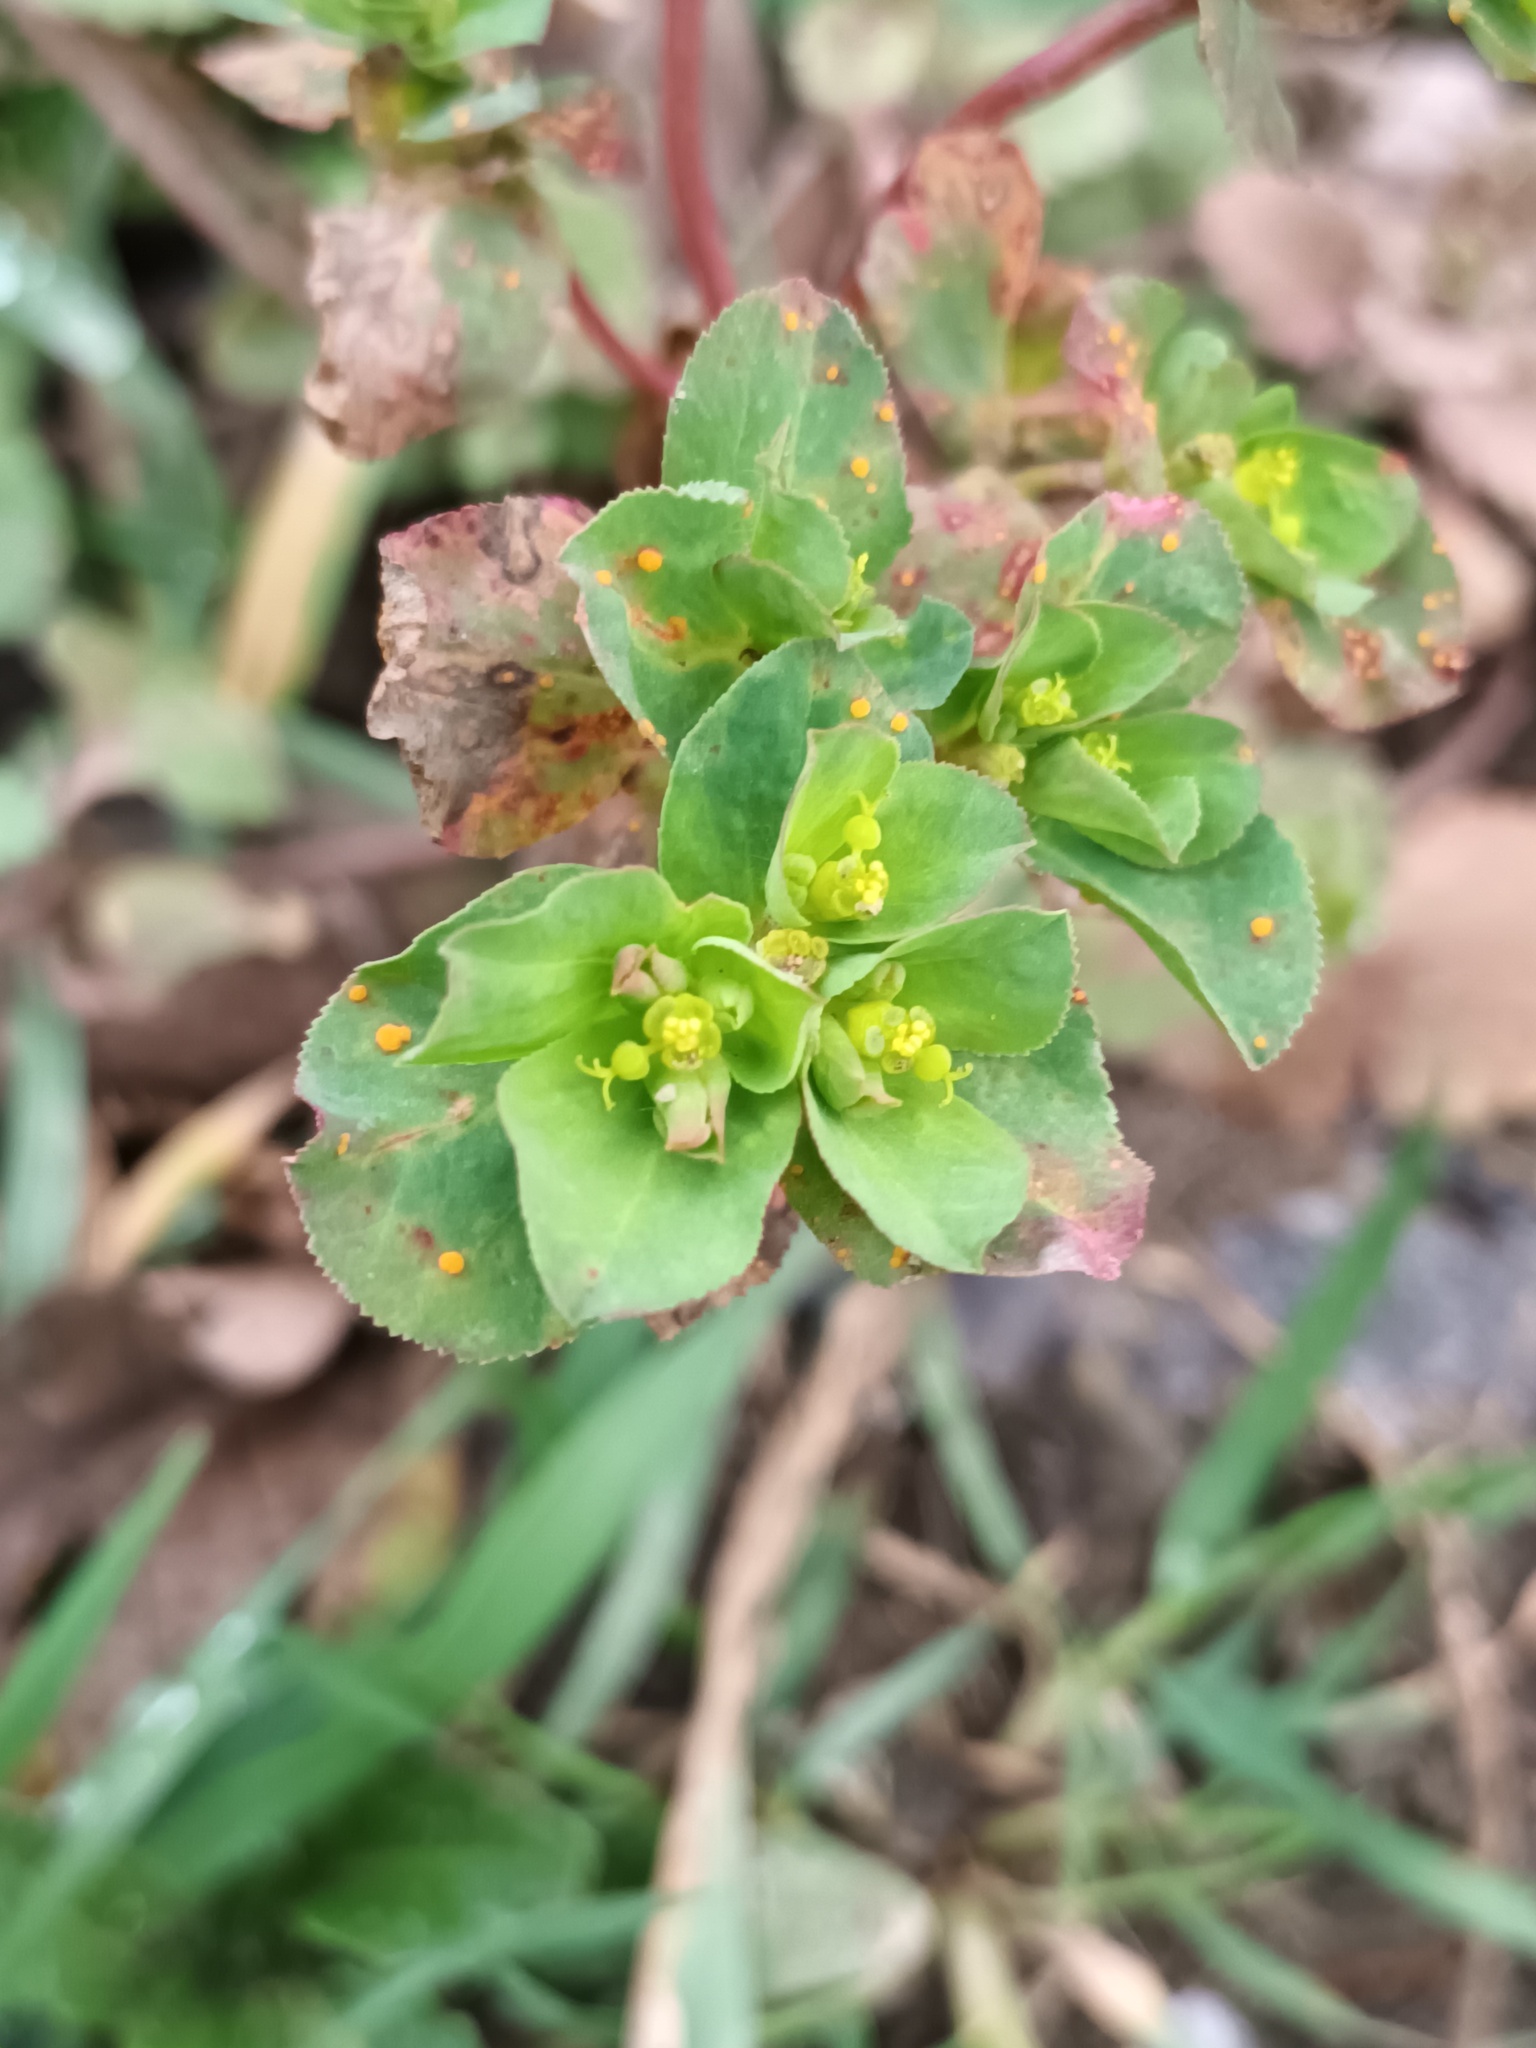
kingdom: Fungi
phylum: Basidiomycota
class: Pucciniomycetes
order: Pucciniales
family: Melampsoraceae
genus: Melampsora
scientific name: Melampsora euphorbiae
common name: Spurge rust
